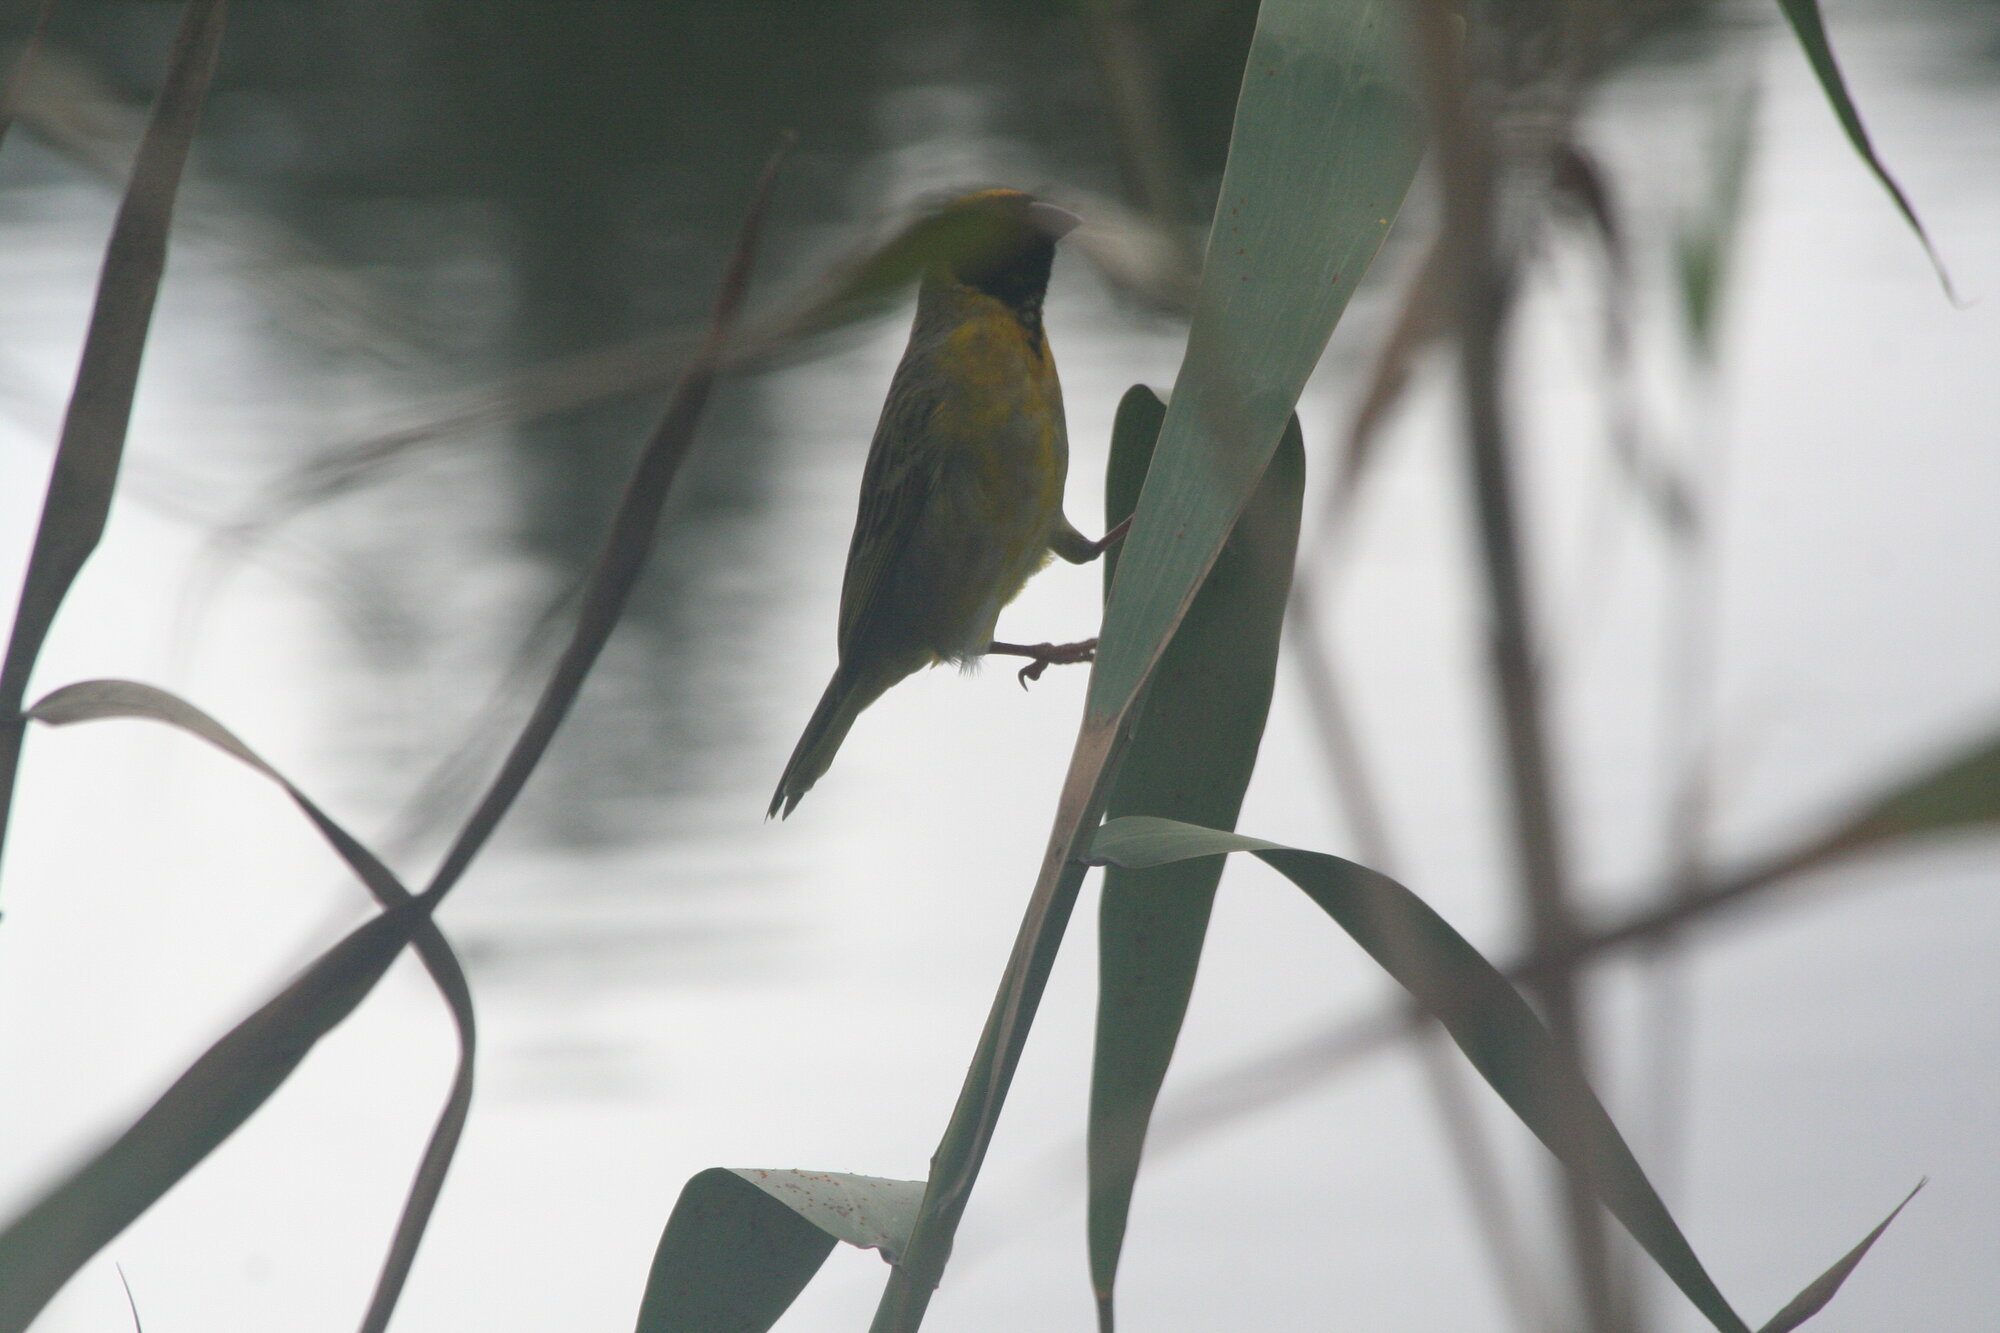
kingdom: Animalia
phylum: Chordata
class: Aves
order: Passeriformes
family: Ploceidae
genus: Ploceus
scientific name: Ploceus velatus
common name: Southern masked weaver
